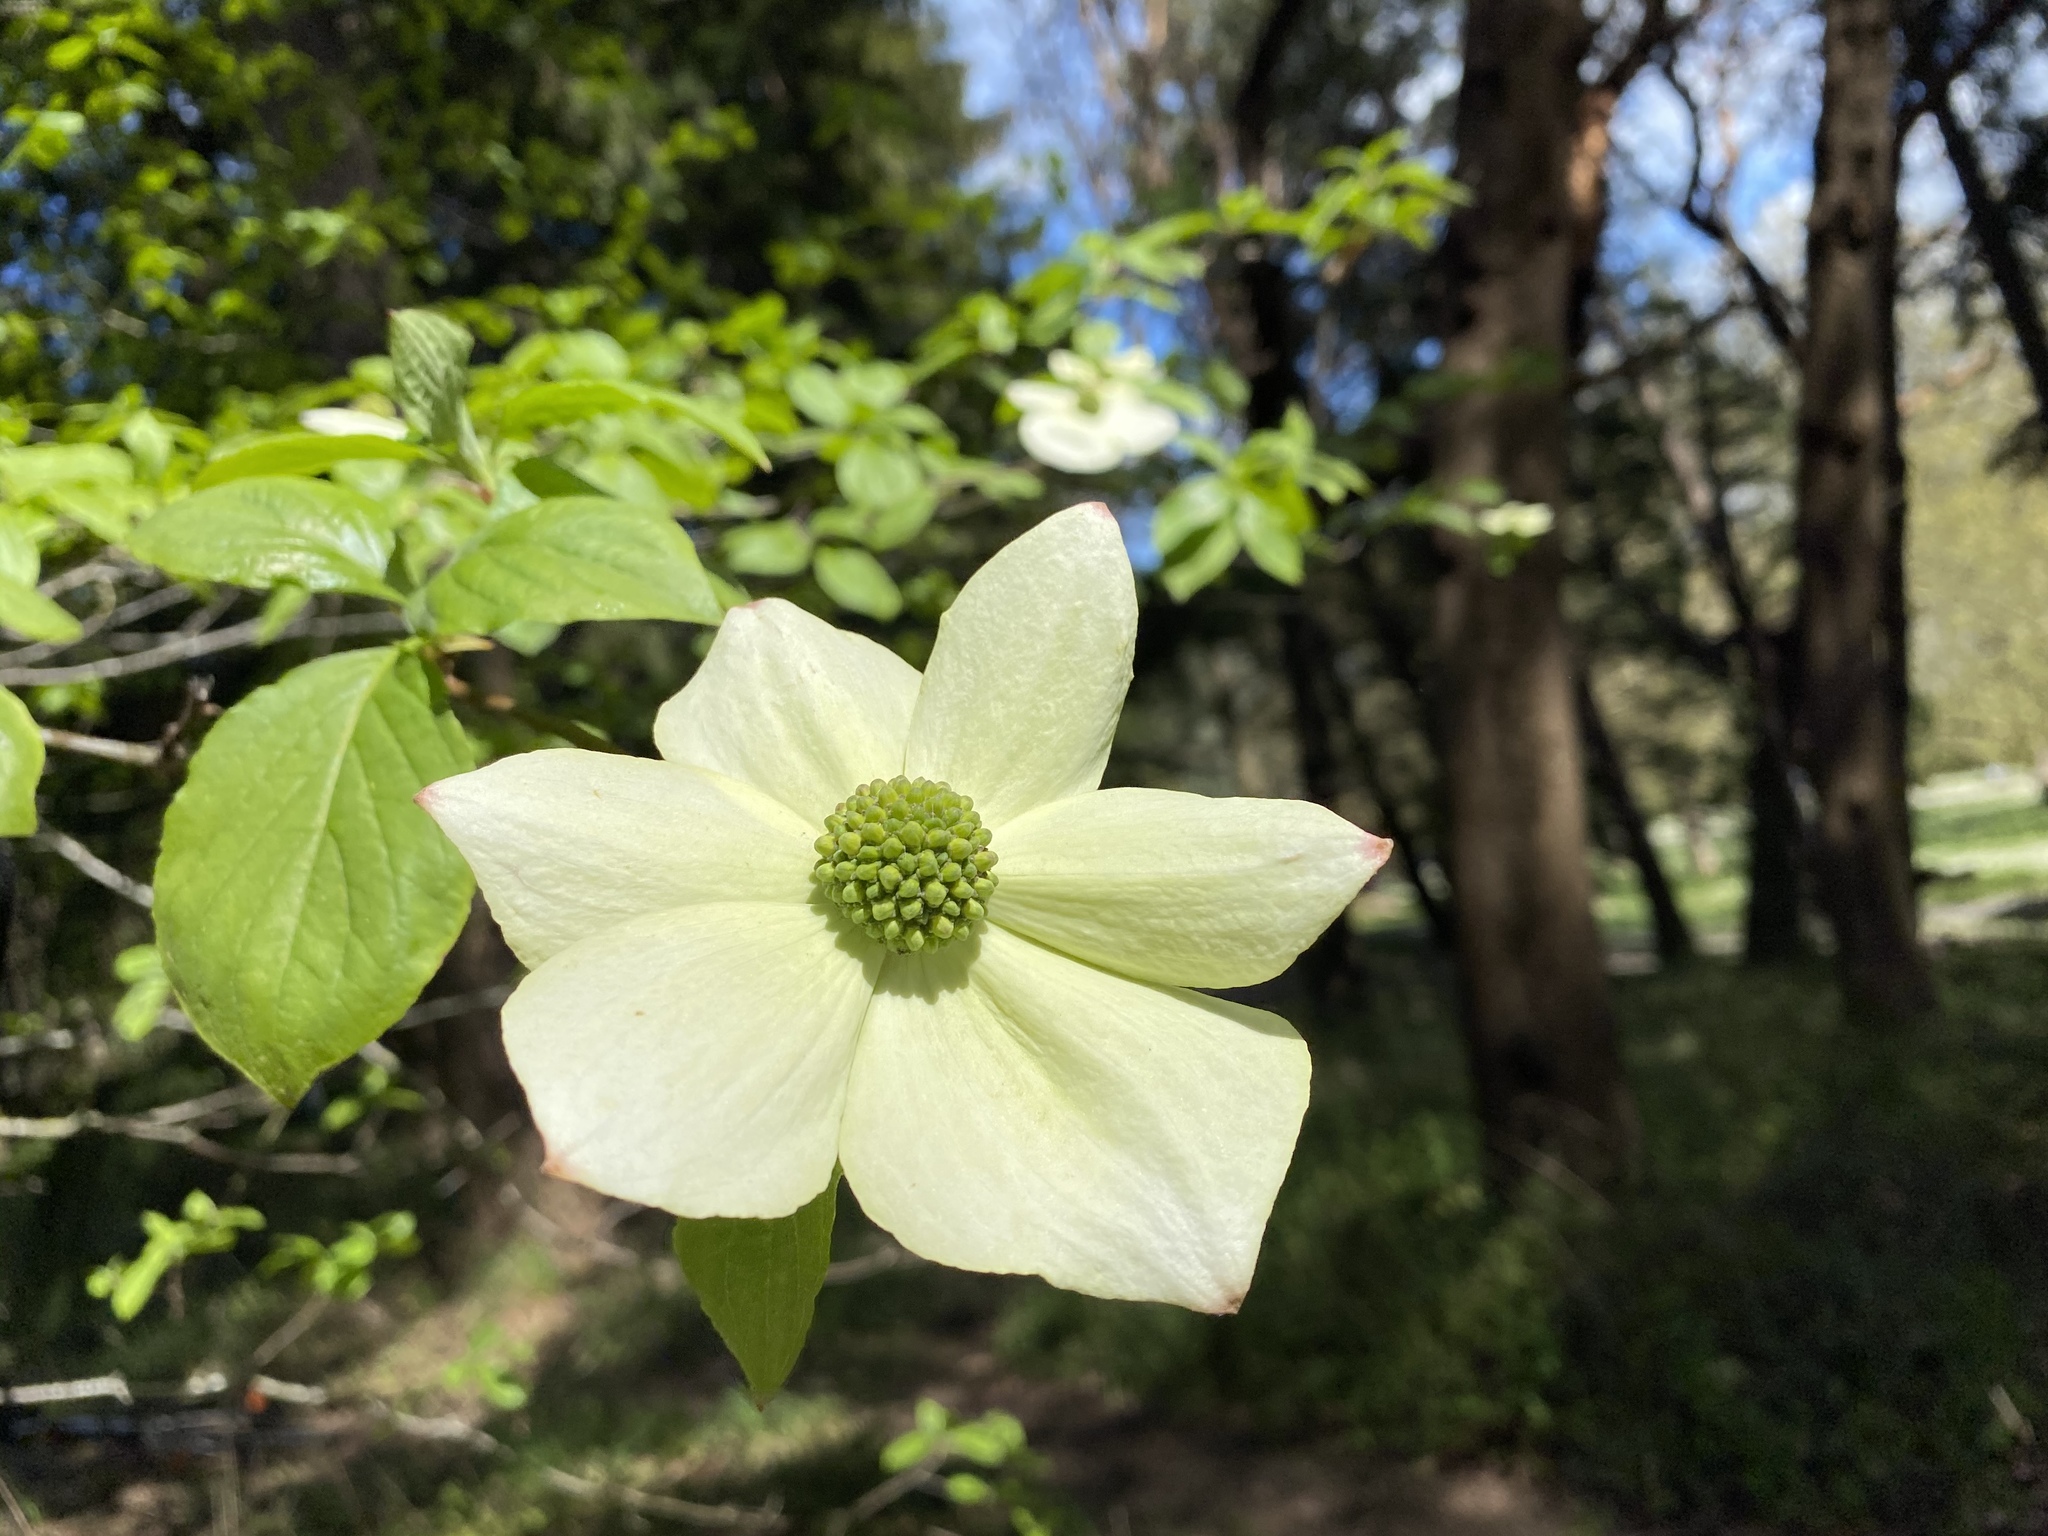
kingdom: Plantae
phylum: Tracheophyta
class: Magnoliopsida
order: Cornales
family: Cornaceae
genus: Cornus
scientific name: Cornus nuttallii
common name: Pacific dogwood
